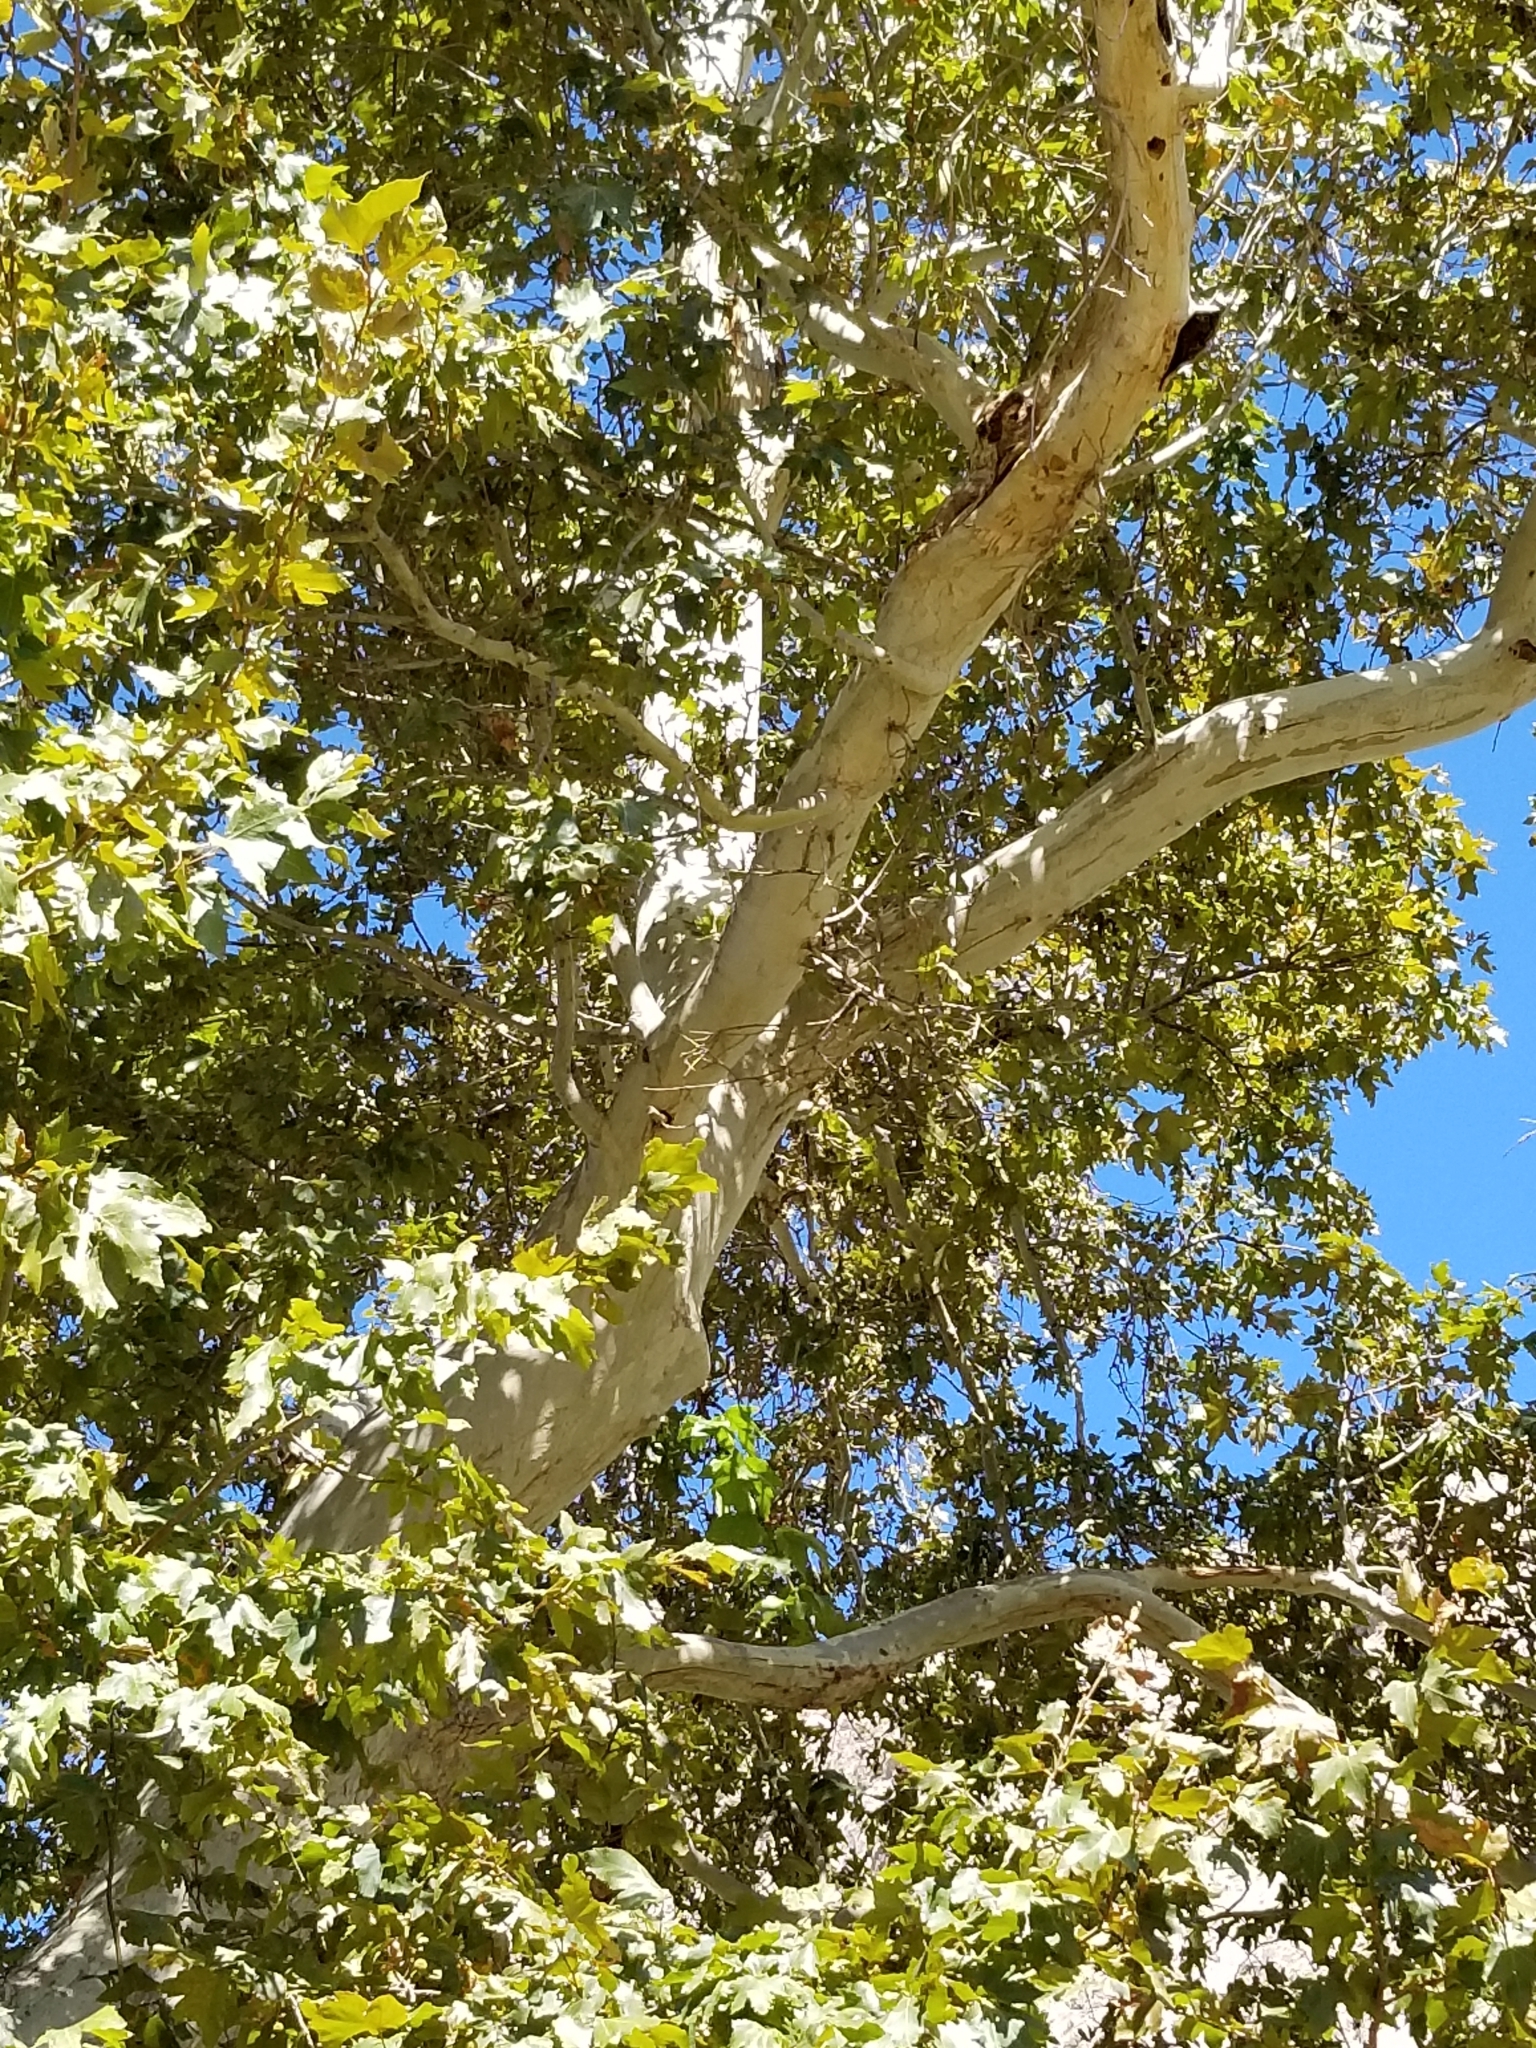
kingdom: Plantae
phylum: Tracheophyta
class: Magnoliopsida
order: Proteales
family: Platanaceae
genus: Platanus
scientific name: Platanus racemosa
